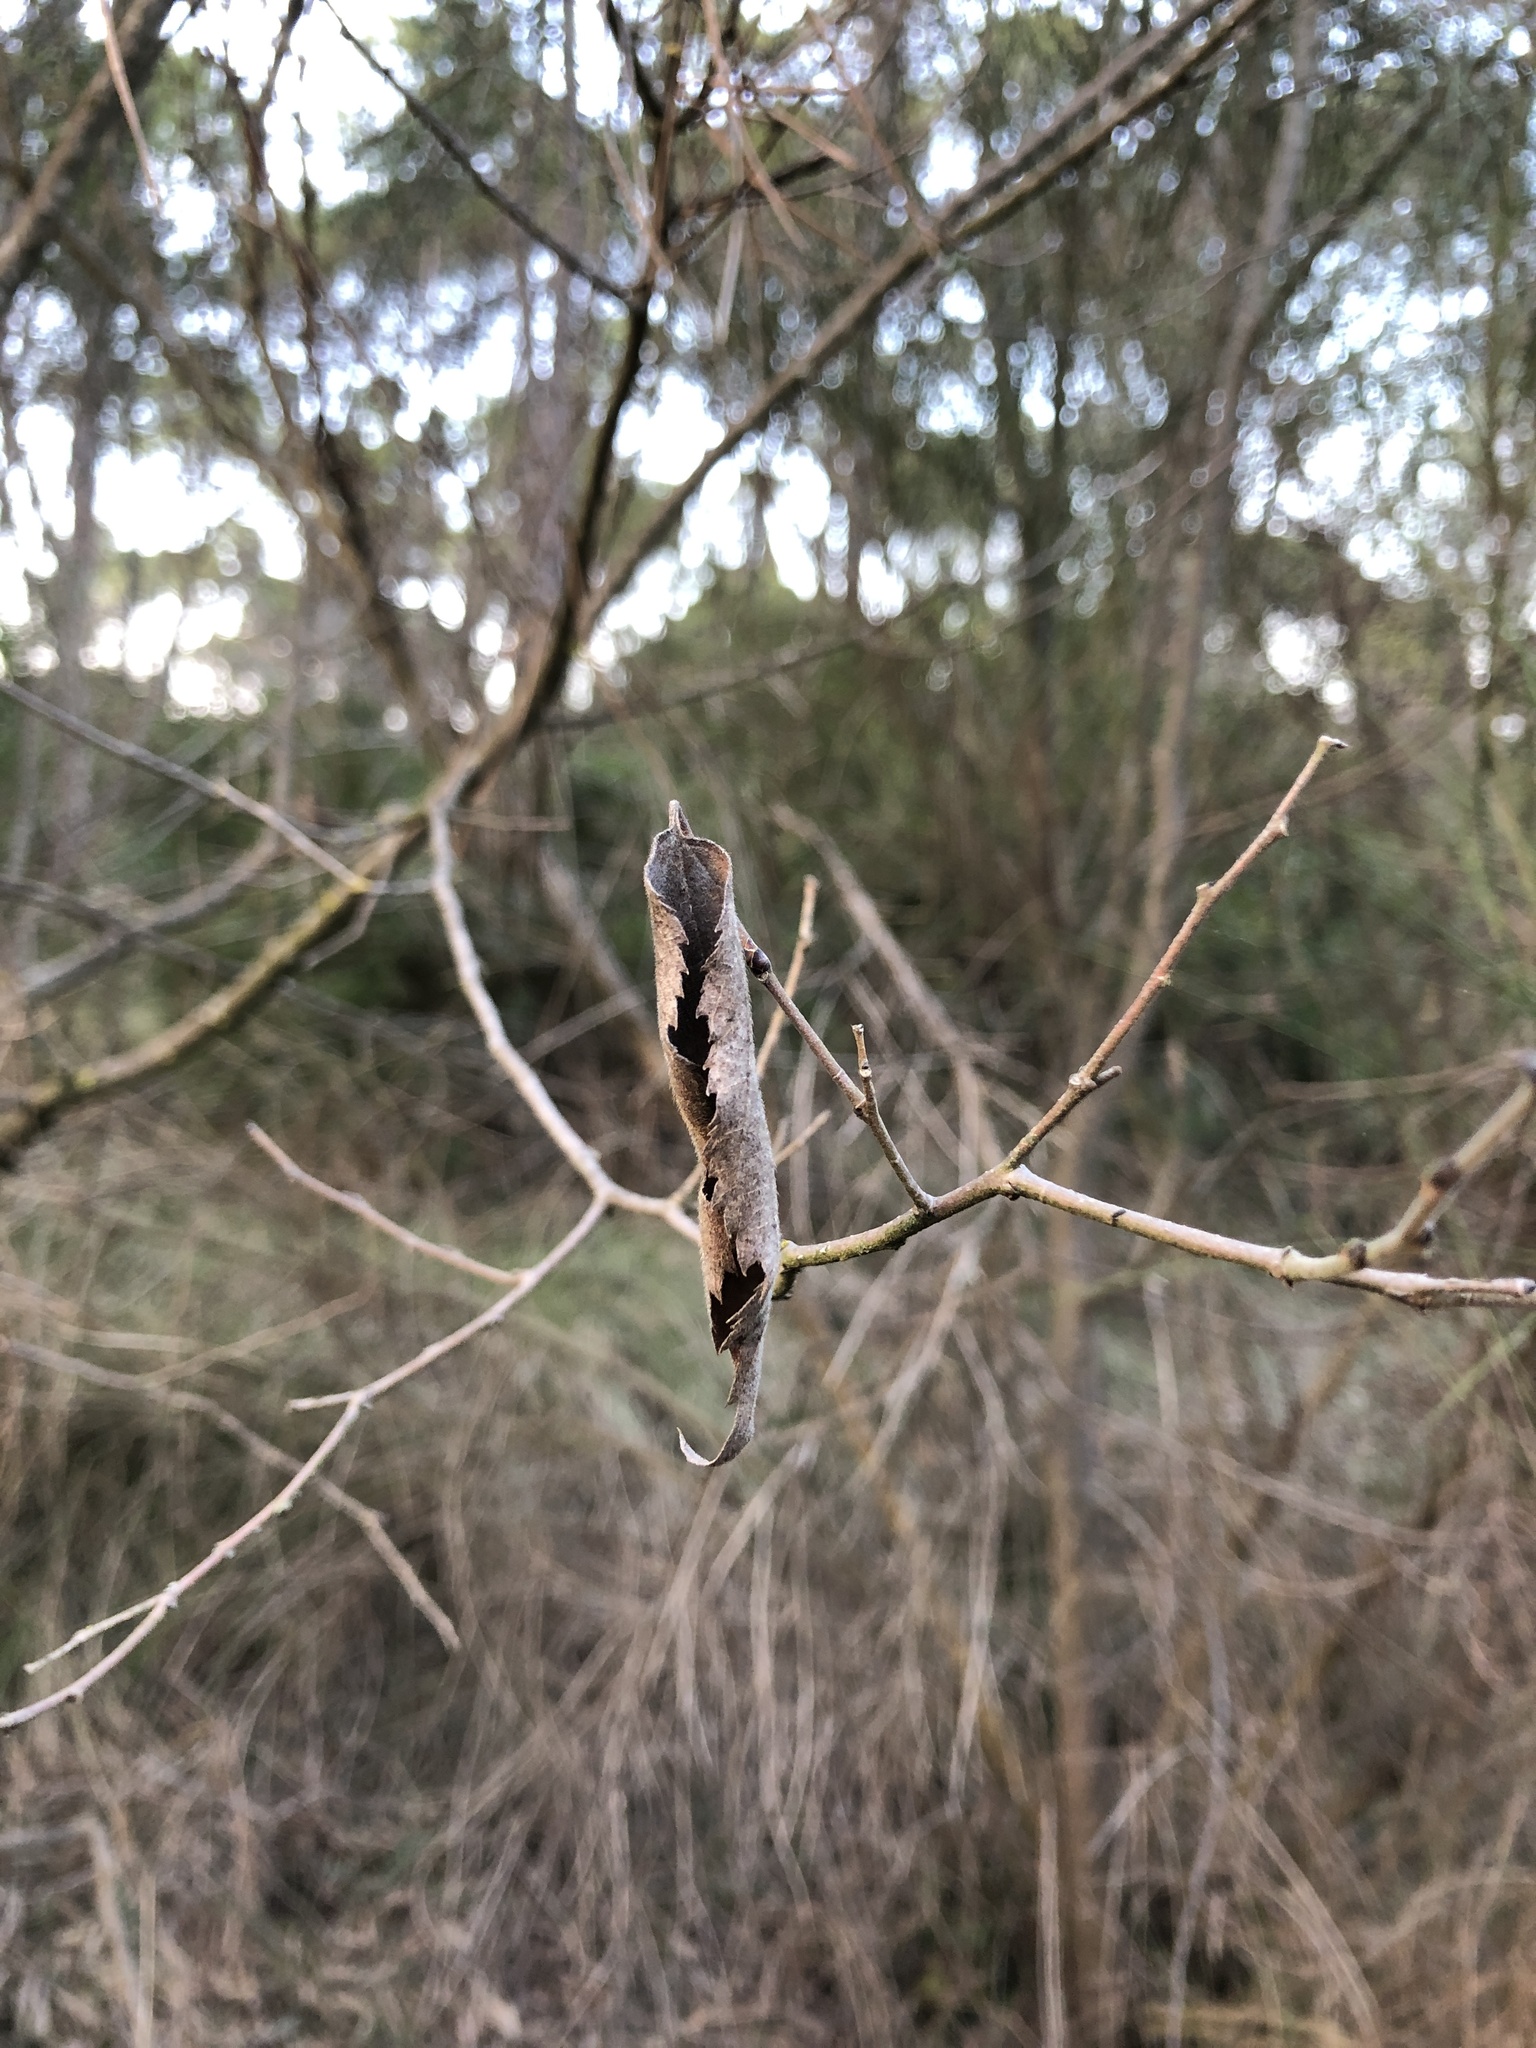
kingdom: Plantae
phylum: Tracheophyta
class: Magnoliopsida
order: Rosales
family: Cannabaceae
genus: Celtis
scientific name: Celtis australis
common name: European hackberry
